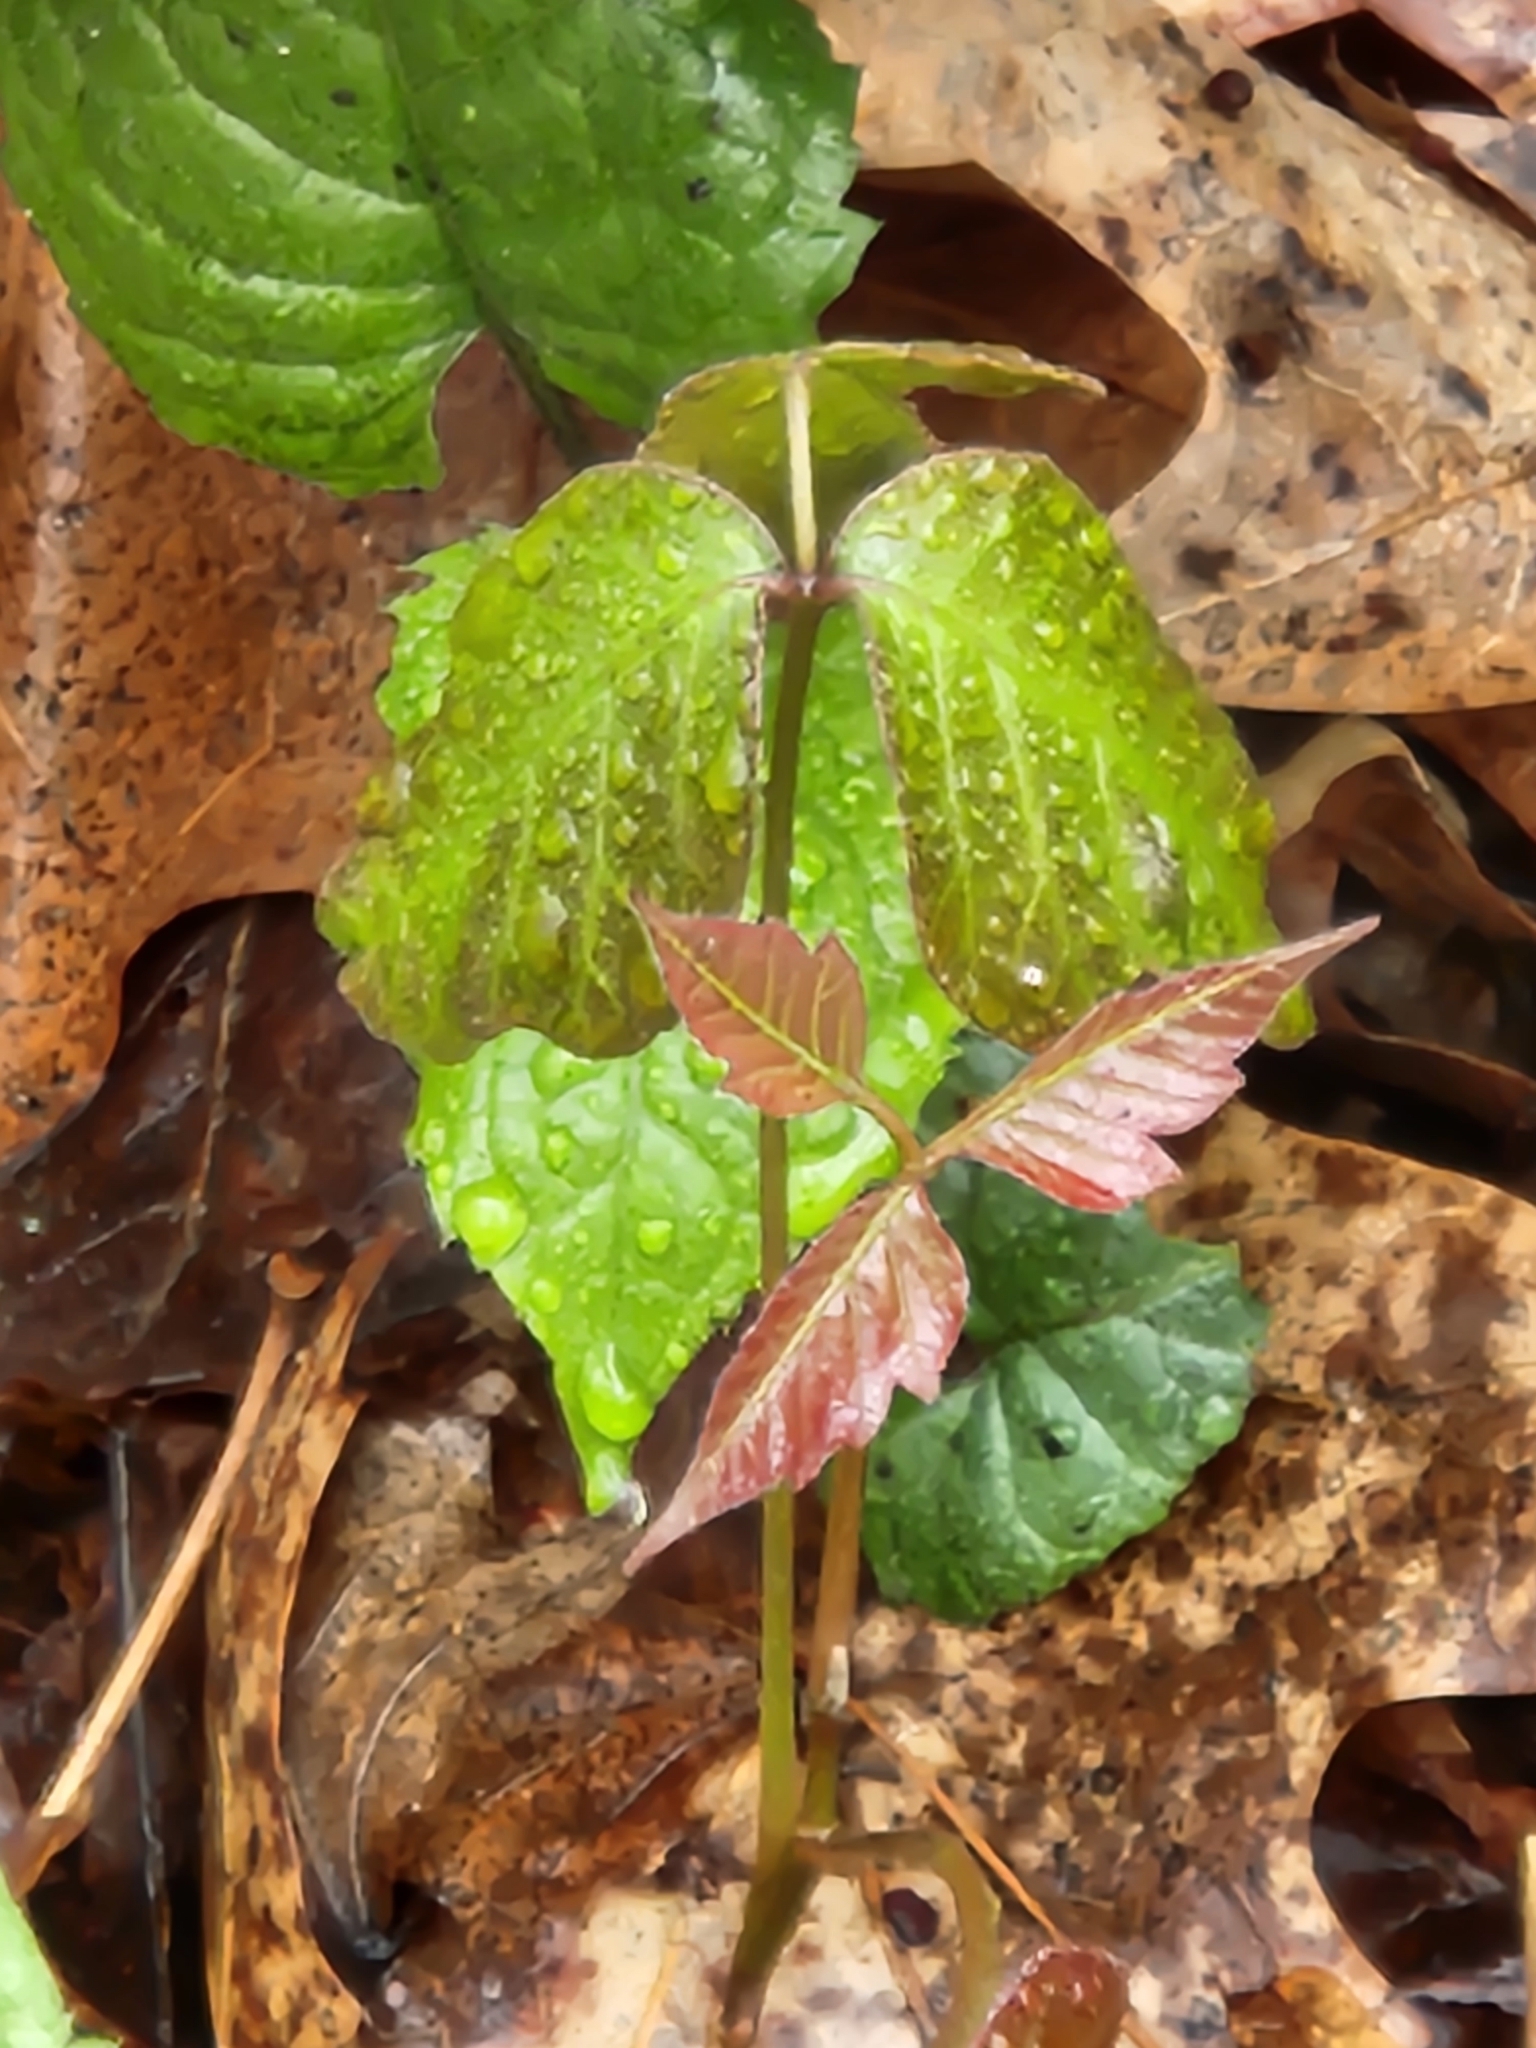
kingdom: Plantae
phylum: Tracheophyta
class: Magnoliopsida
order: Sapindales
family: Anacardiaceae
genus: Toxicodendron
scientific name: Toxicodendron radicans
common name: Poison ivy
